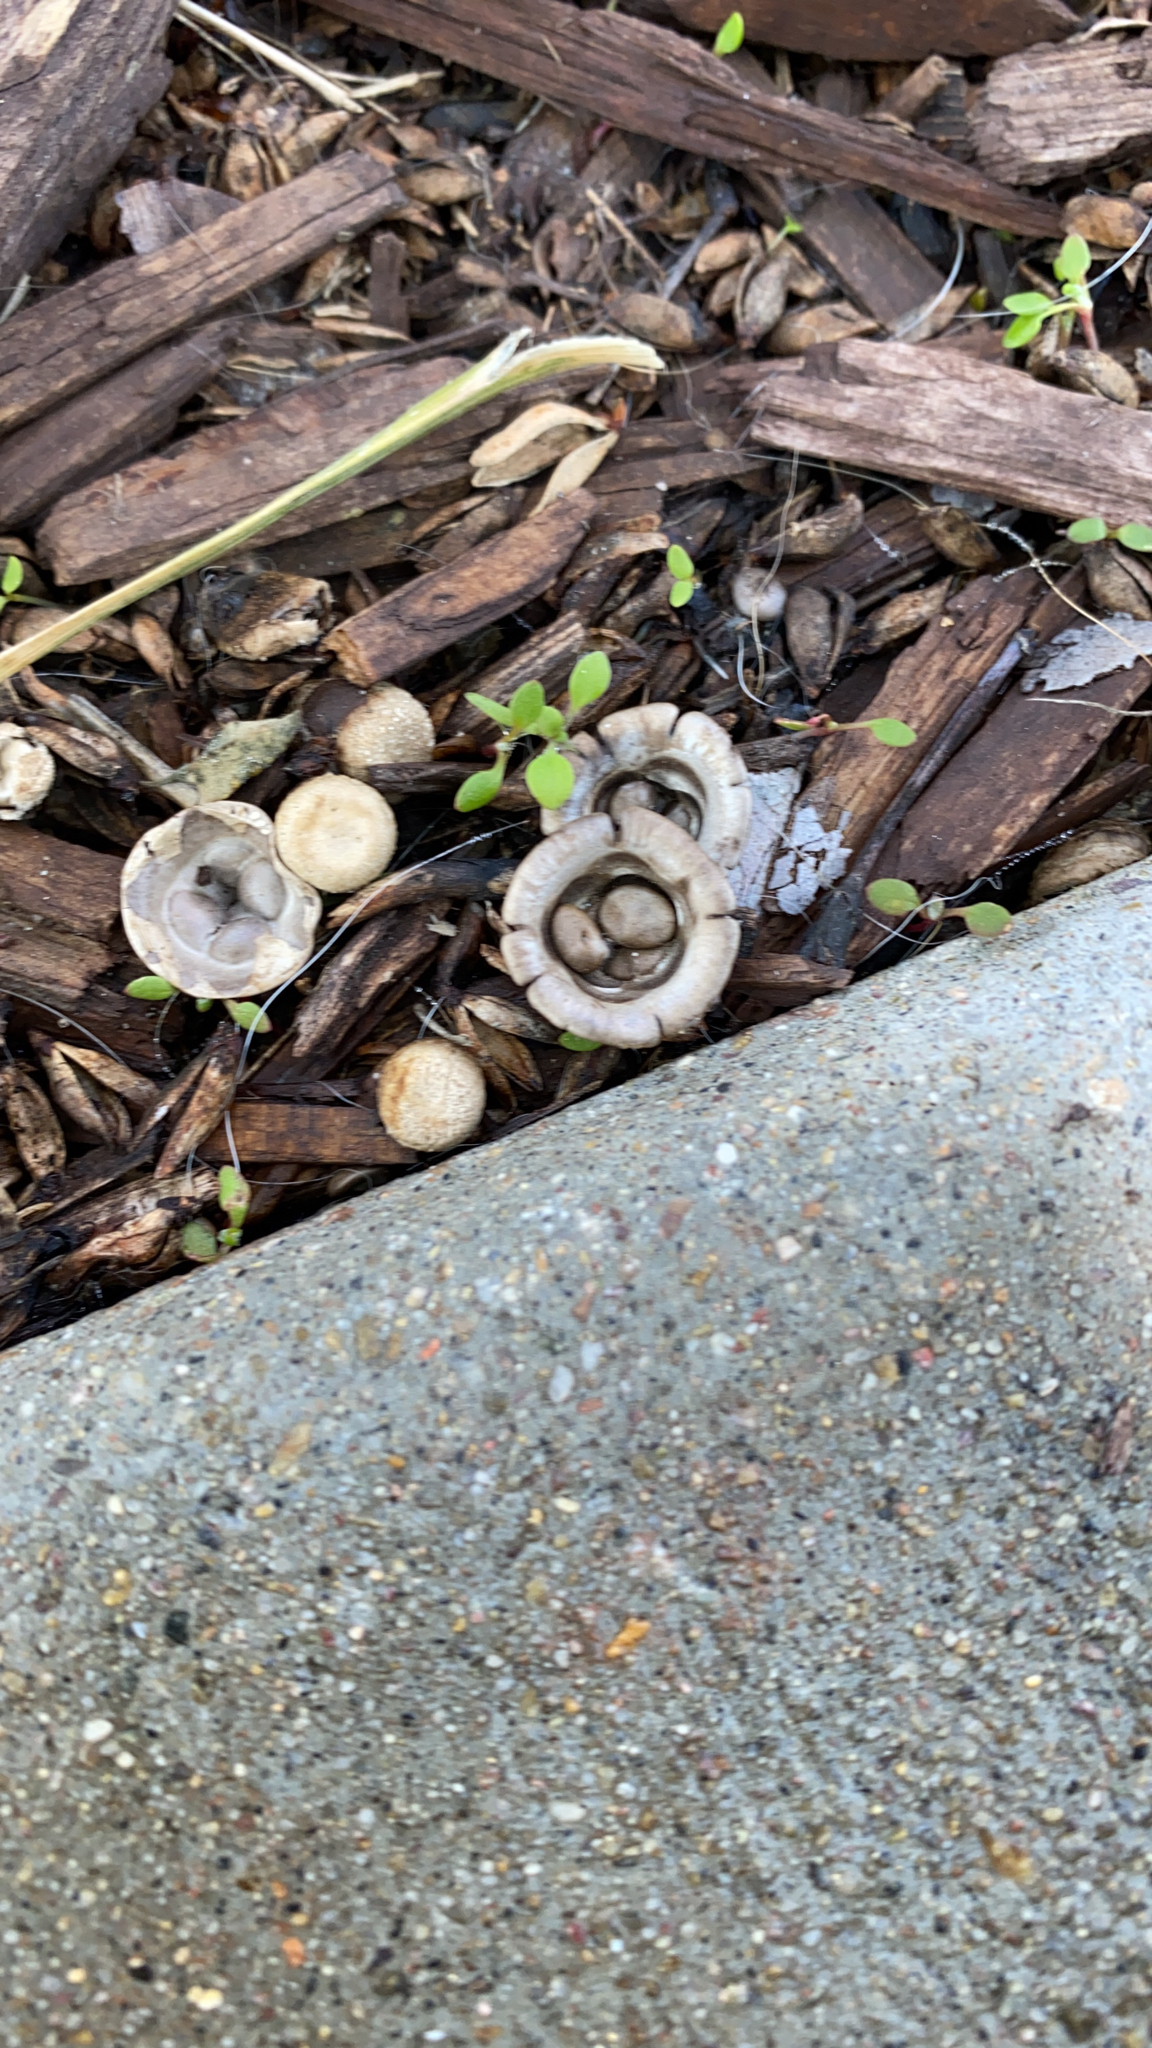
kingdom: Fungi
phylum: Basidiomycota
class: Agaricomycetes
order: Agaricales
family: Agaricaceae
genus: Cyathus
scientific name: Cyathus olla
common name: Field bird's nest
